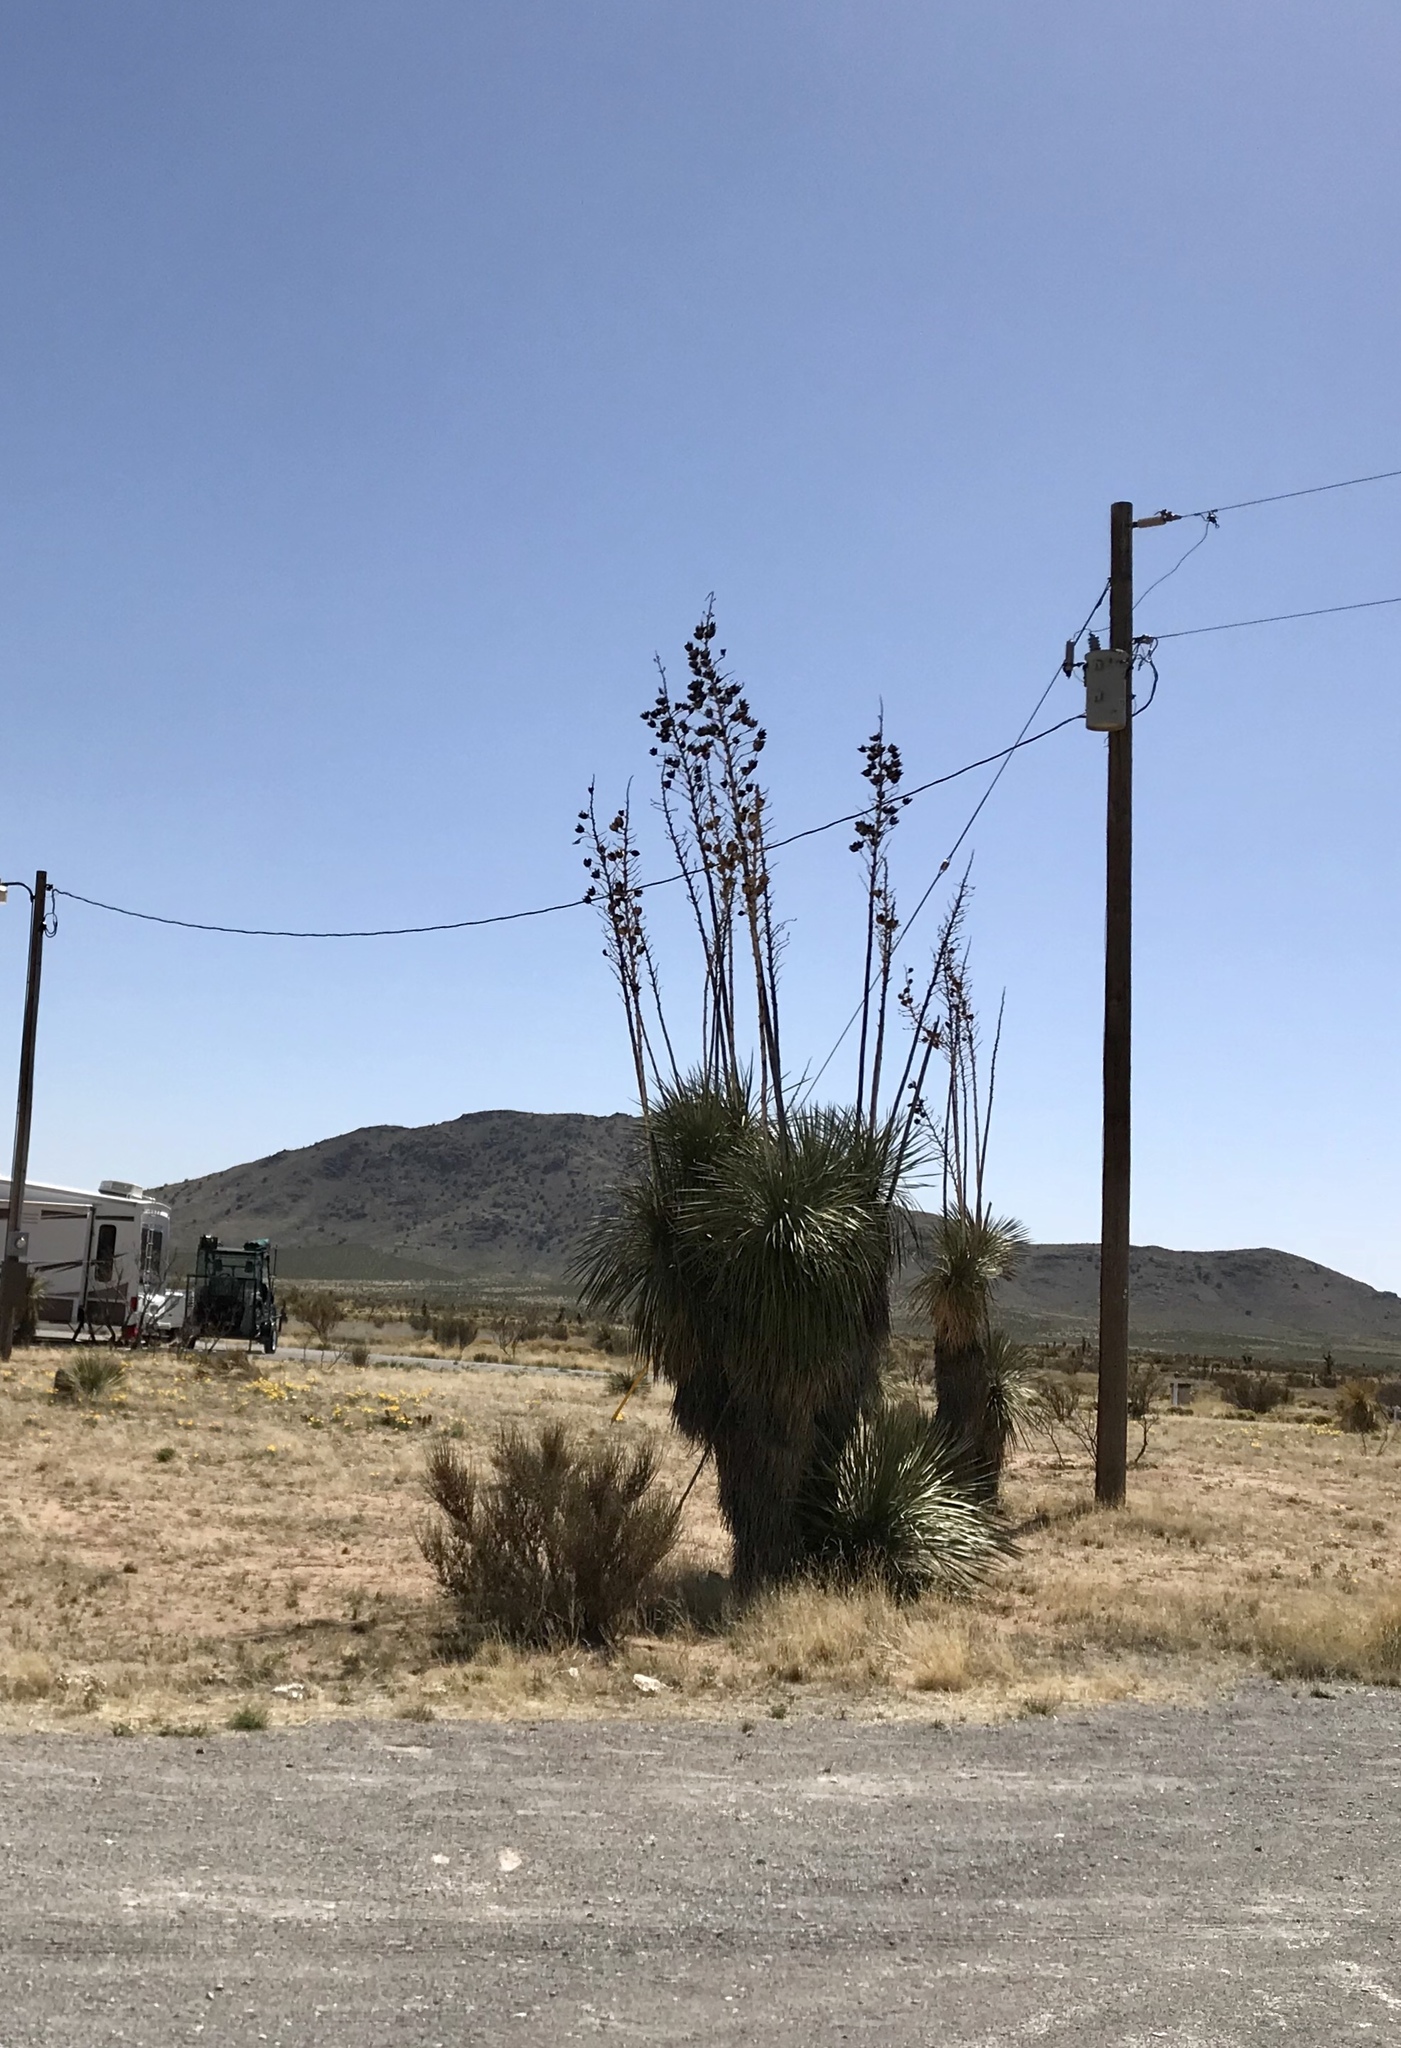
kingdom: Plantae
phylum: Tracheophyta
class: Liliopsida
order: Asparagales
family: Asparagaceae
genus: Yucca
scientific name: Yucca elata
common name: Palmella
